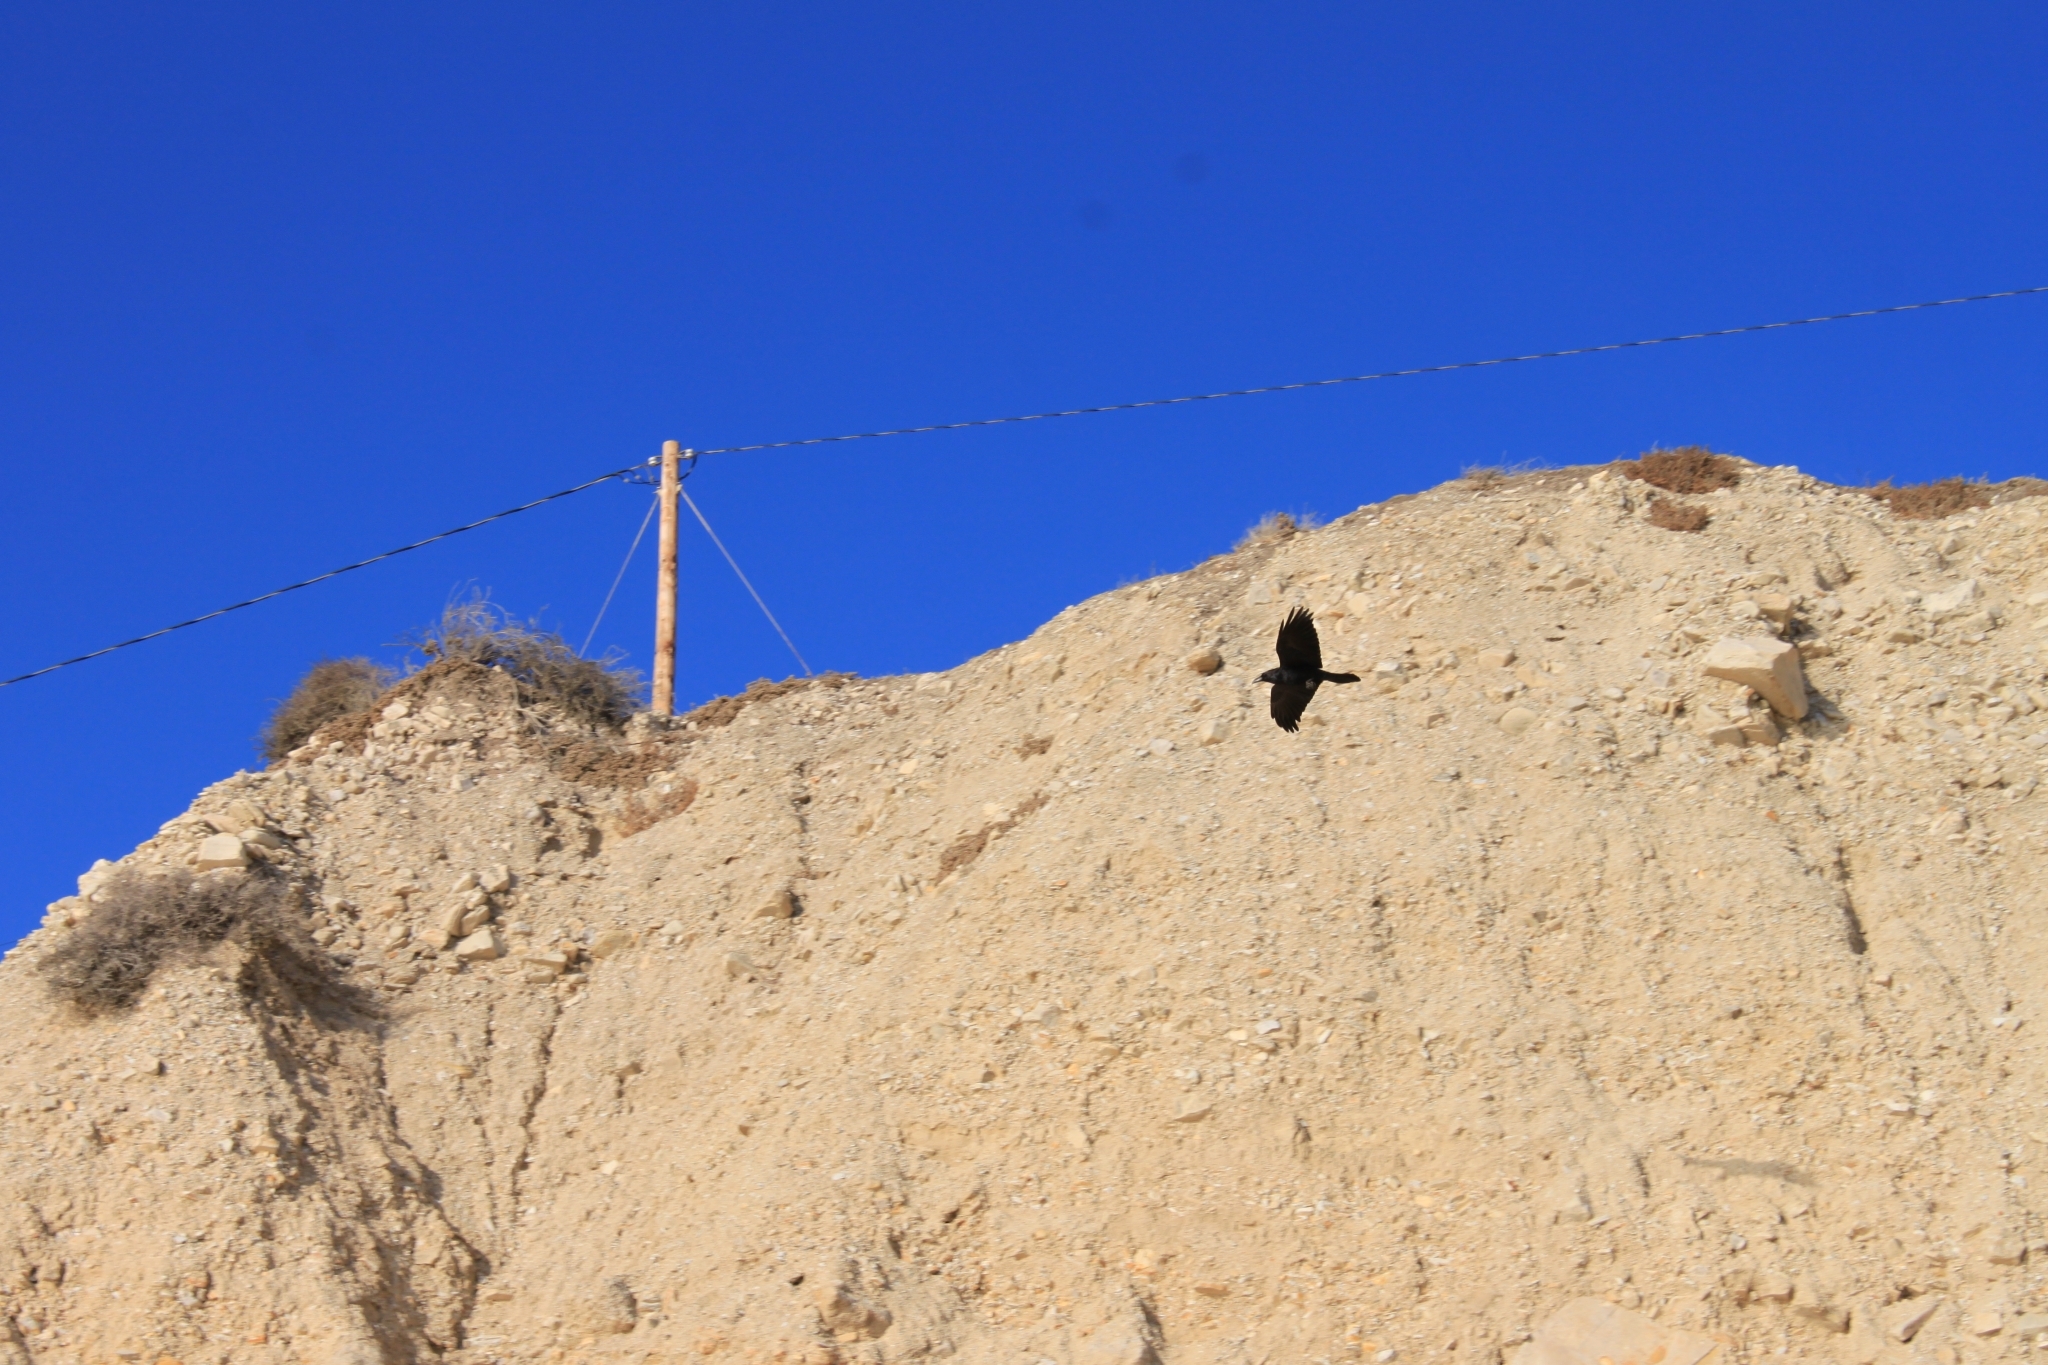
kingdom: Animalia
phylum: Chordata
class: Aves
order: Passeriformes
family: Corvidae
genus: Corvus
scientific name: Corvus corax
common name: Common raven
